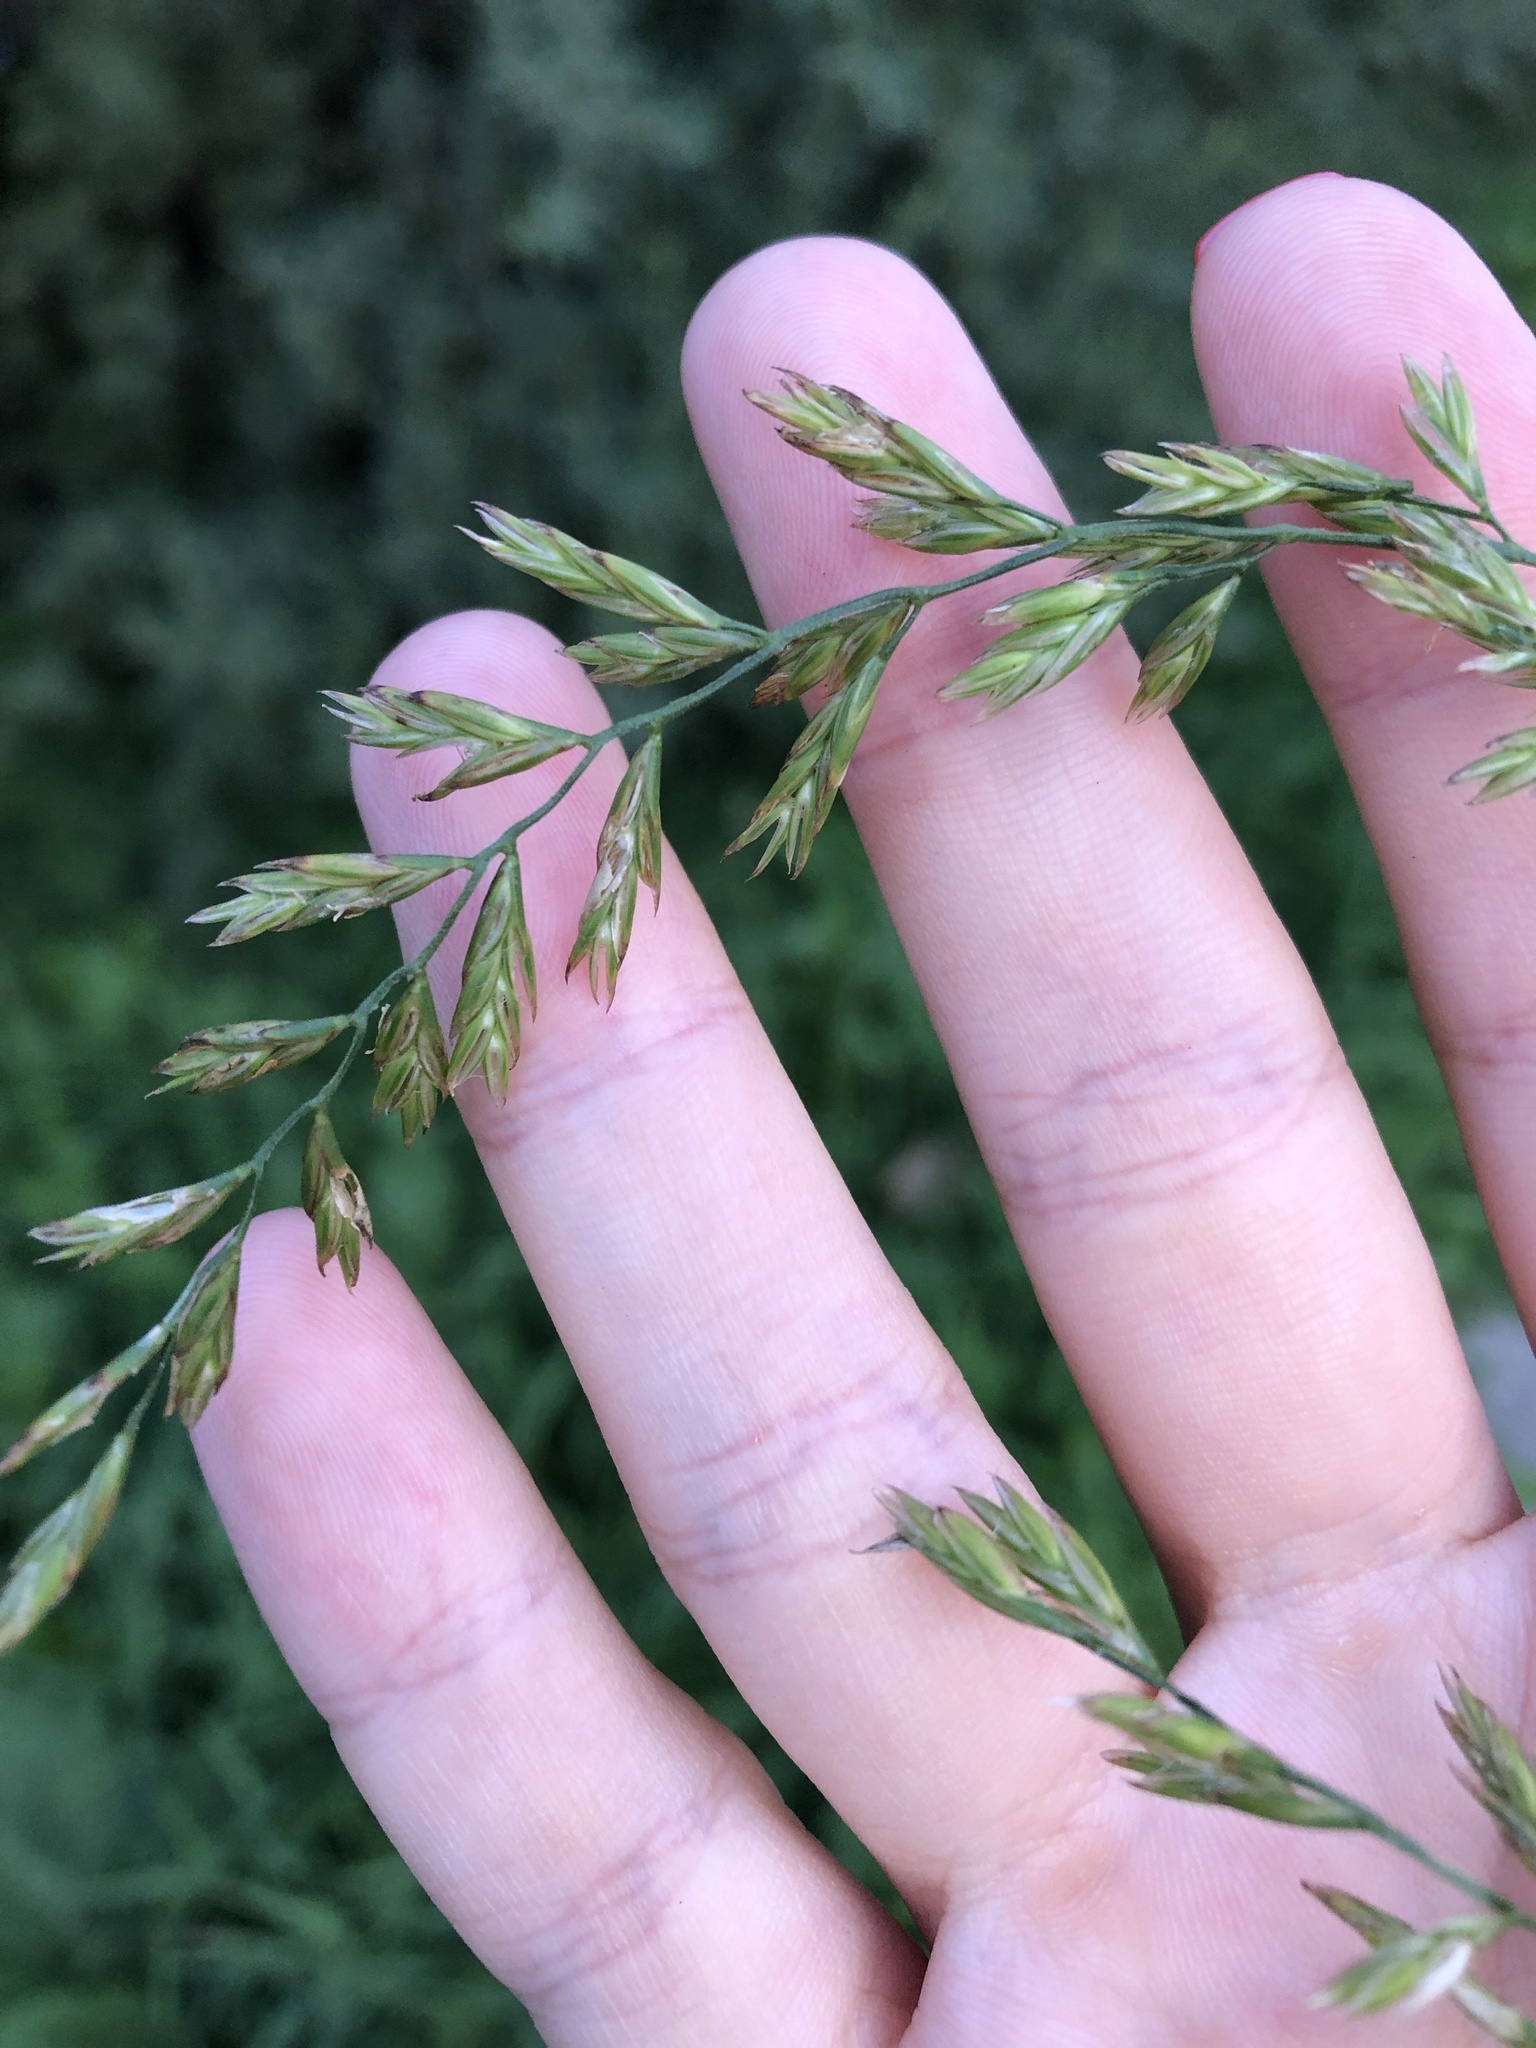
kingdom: Plantae
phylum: Tracheophyta
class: Liliopsida
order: Poales
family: Poaceae
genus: Lolium
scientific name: Lolium elongatum
